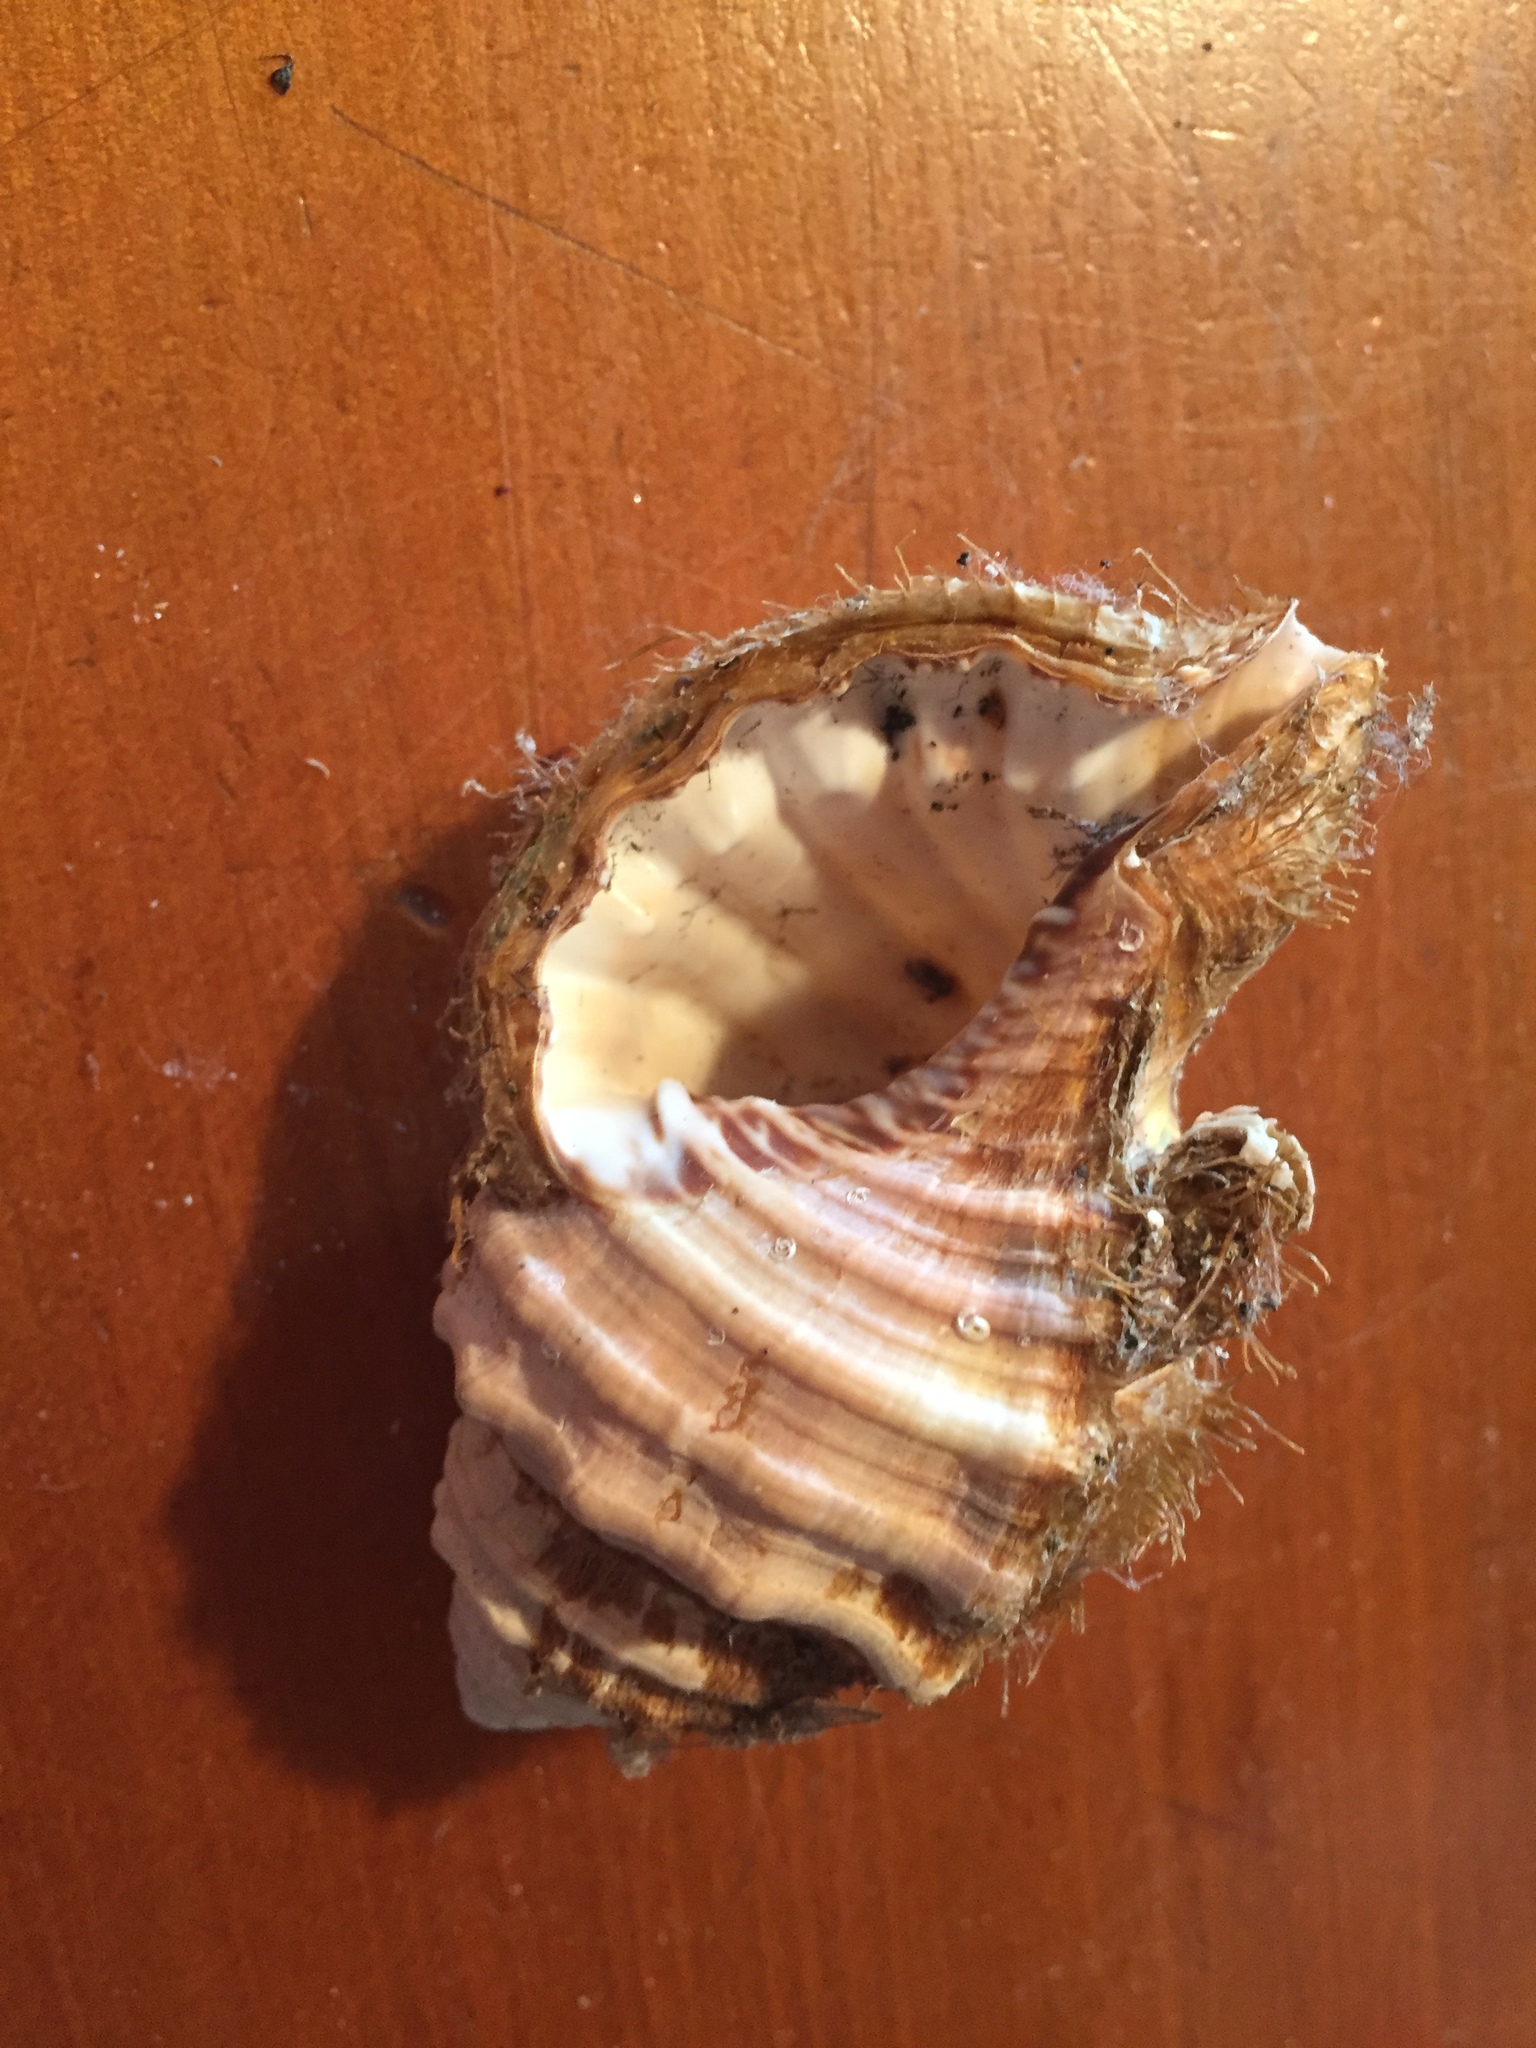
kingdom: Animalia
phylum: Mollusca
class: Gastropoda
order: Littorinimorpha
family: Cymatiidae
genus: Monoplex
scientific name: Monoplex parthenopeus
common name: Giant triton
